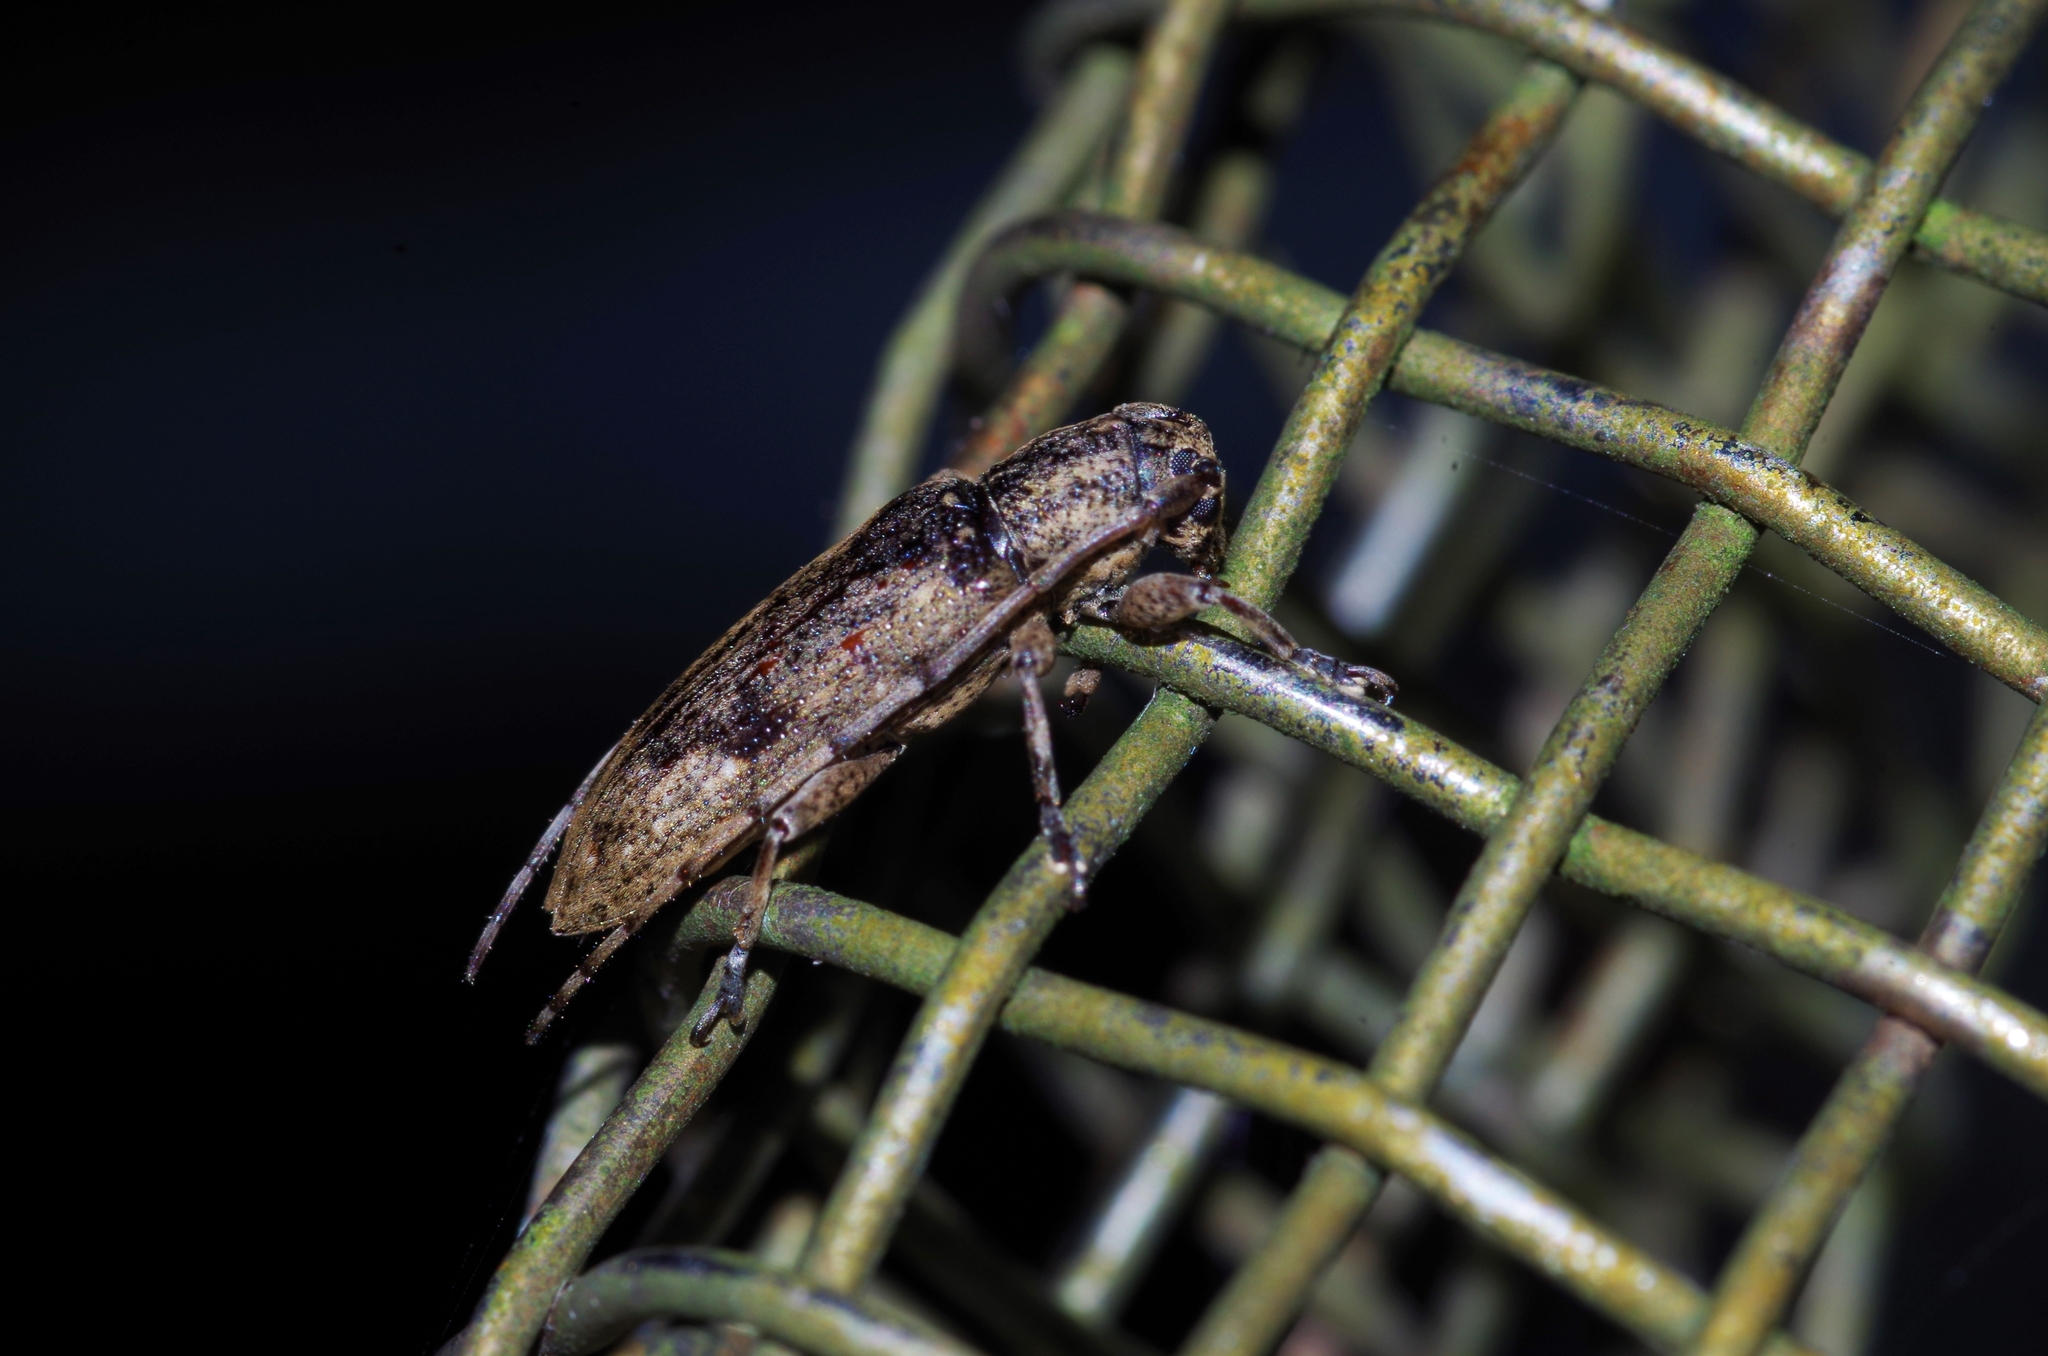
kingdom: Animalia
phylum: Arthropoda
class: Insecta
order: Coleoptera
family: Cerambycidae
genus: Mycerinopsis
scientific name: Mycerinopsis ordinata
